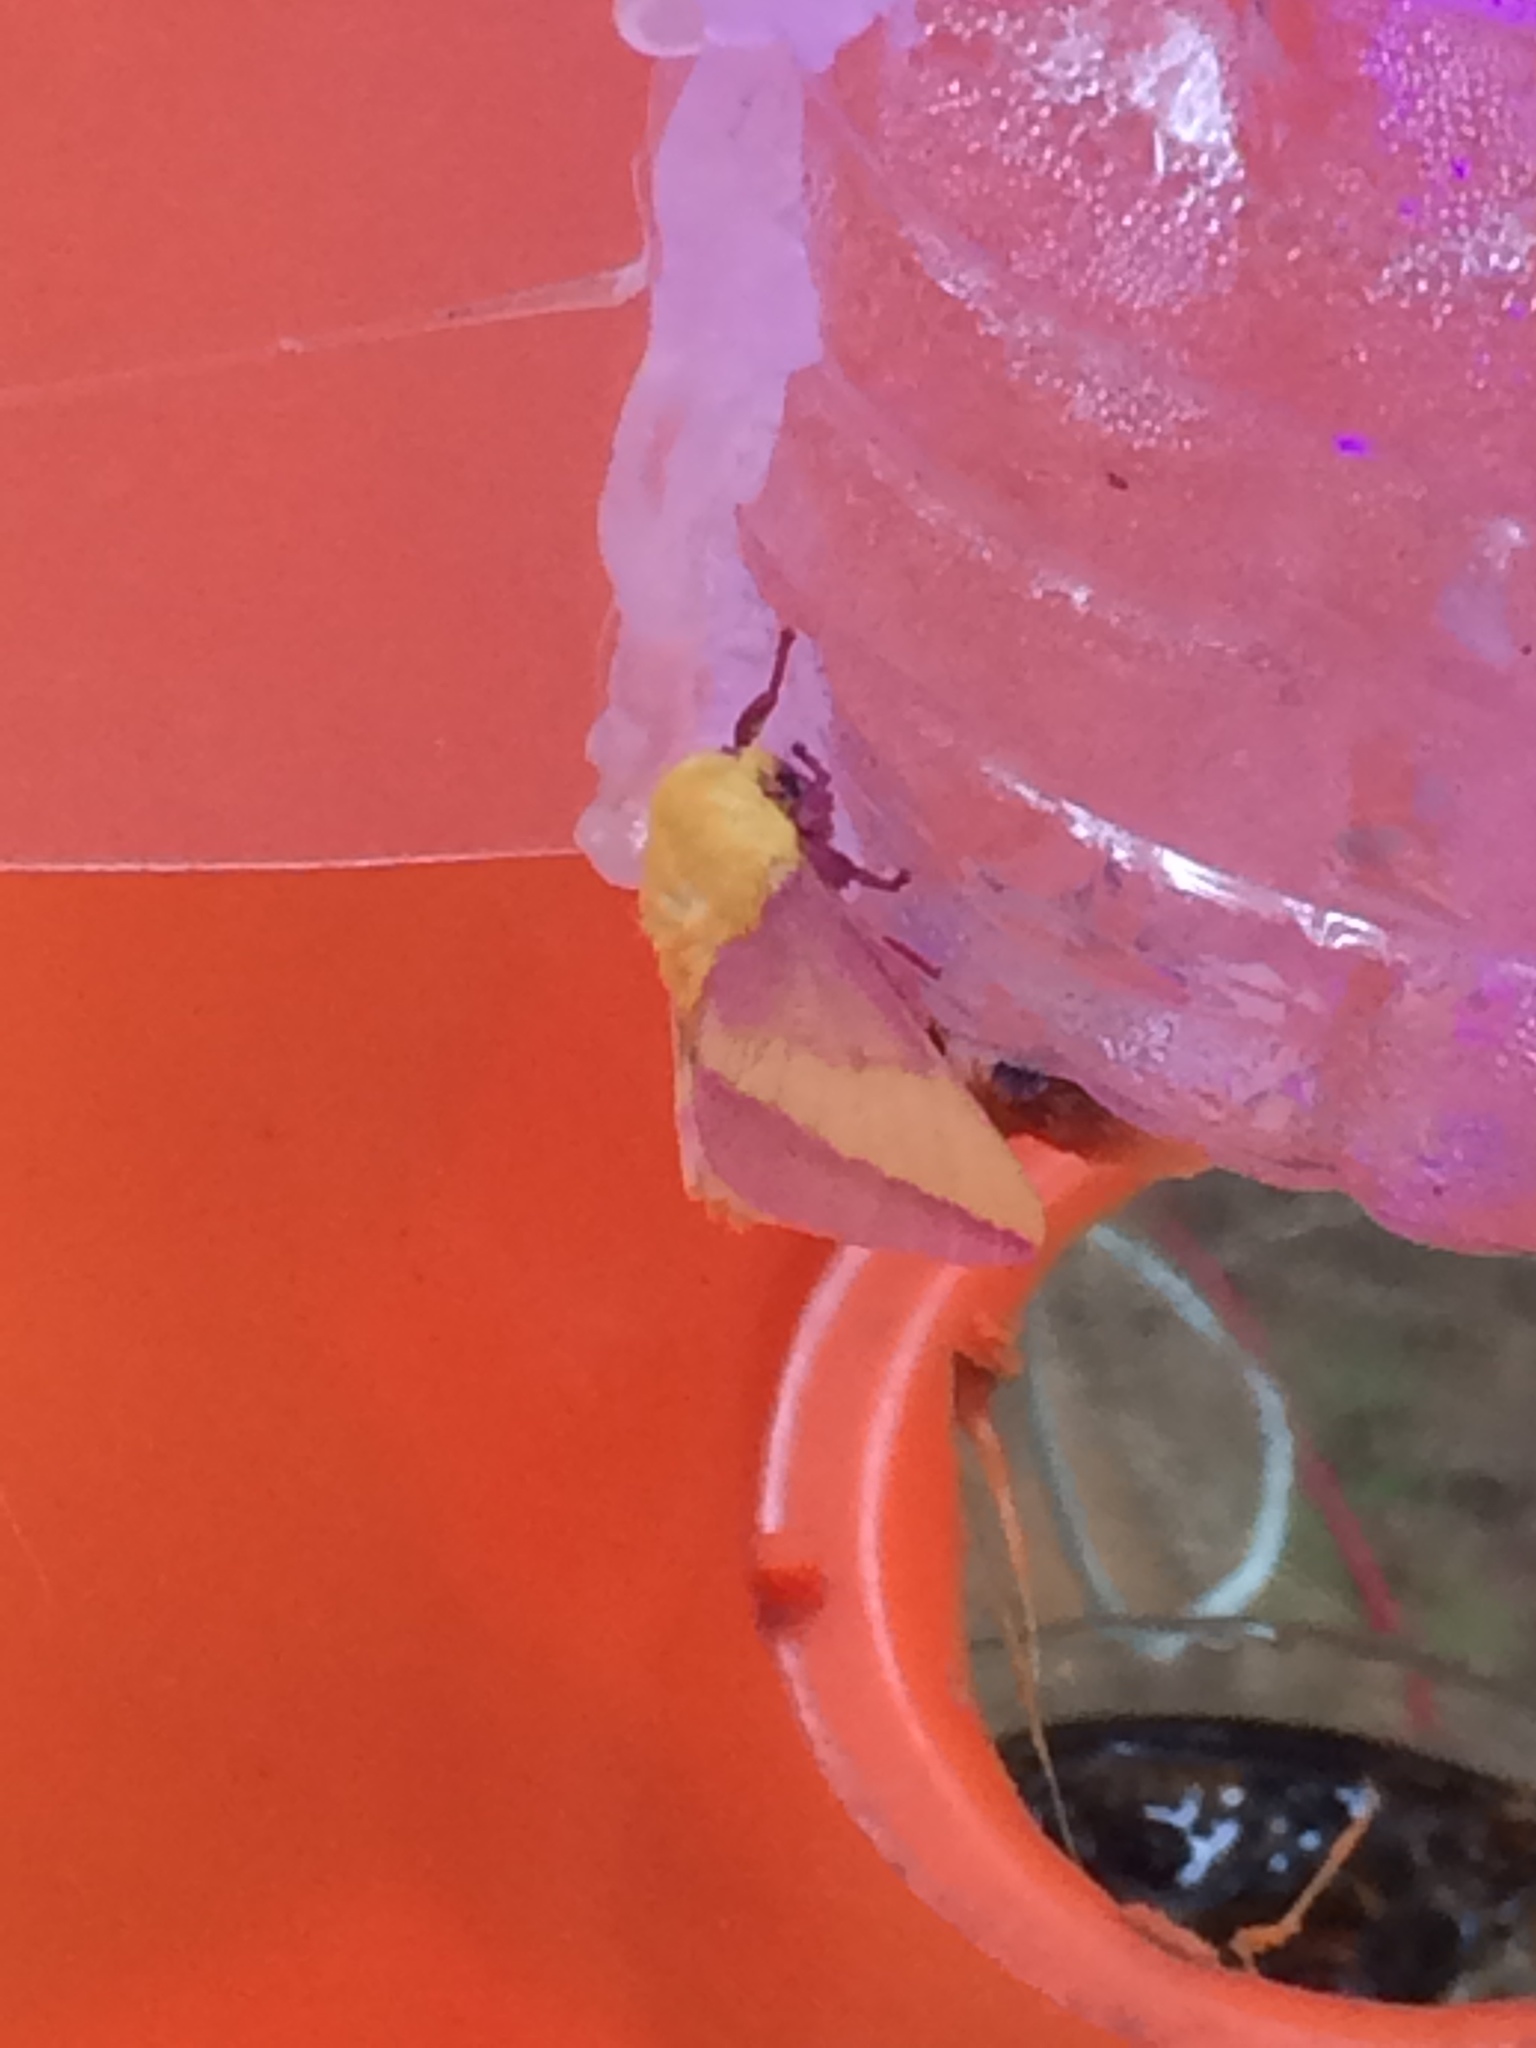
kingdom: Animalia
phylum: Arthropoda
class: Insecta
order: Lepidoptera
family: Saturniidae
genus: Dryocampa
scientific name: Dryocampa rubicunda
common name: Rosy maple moth
